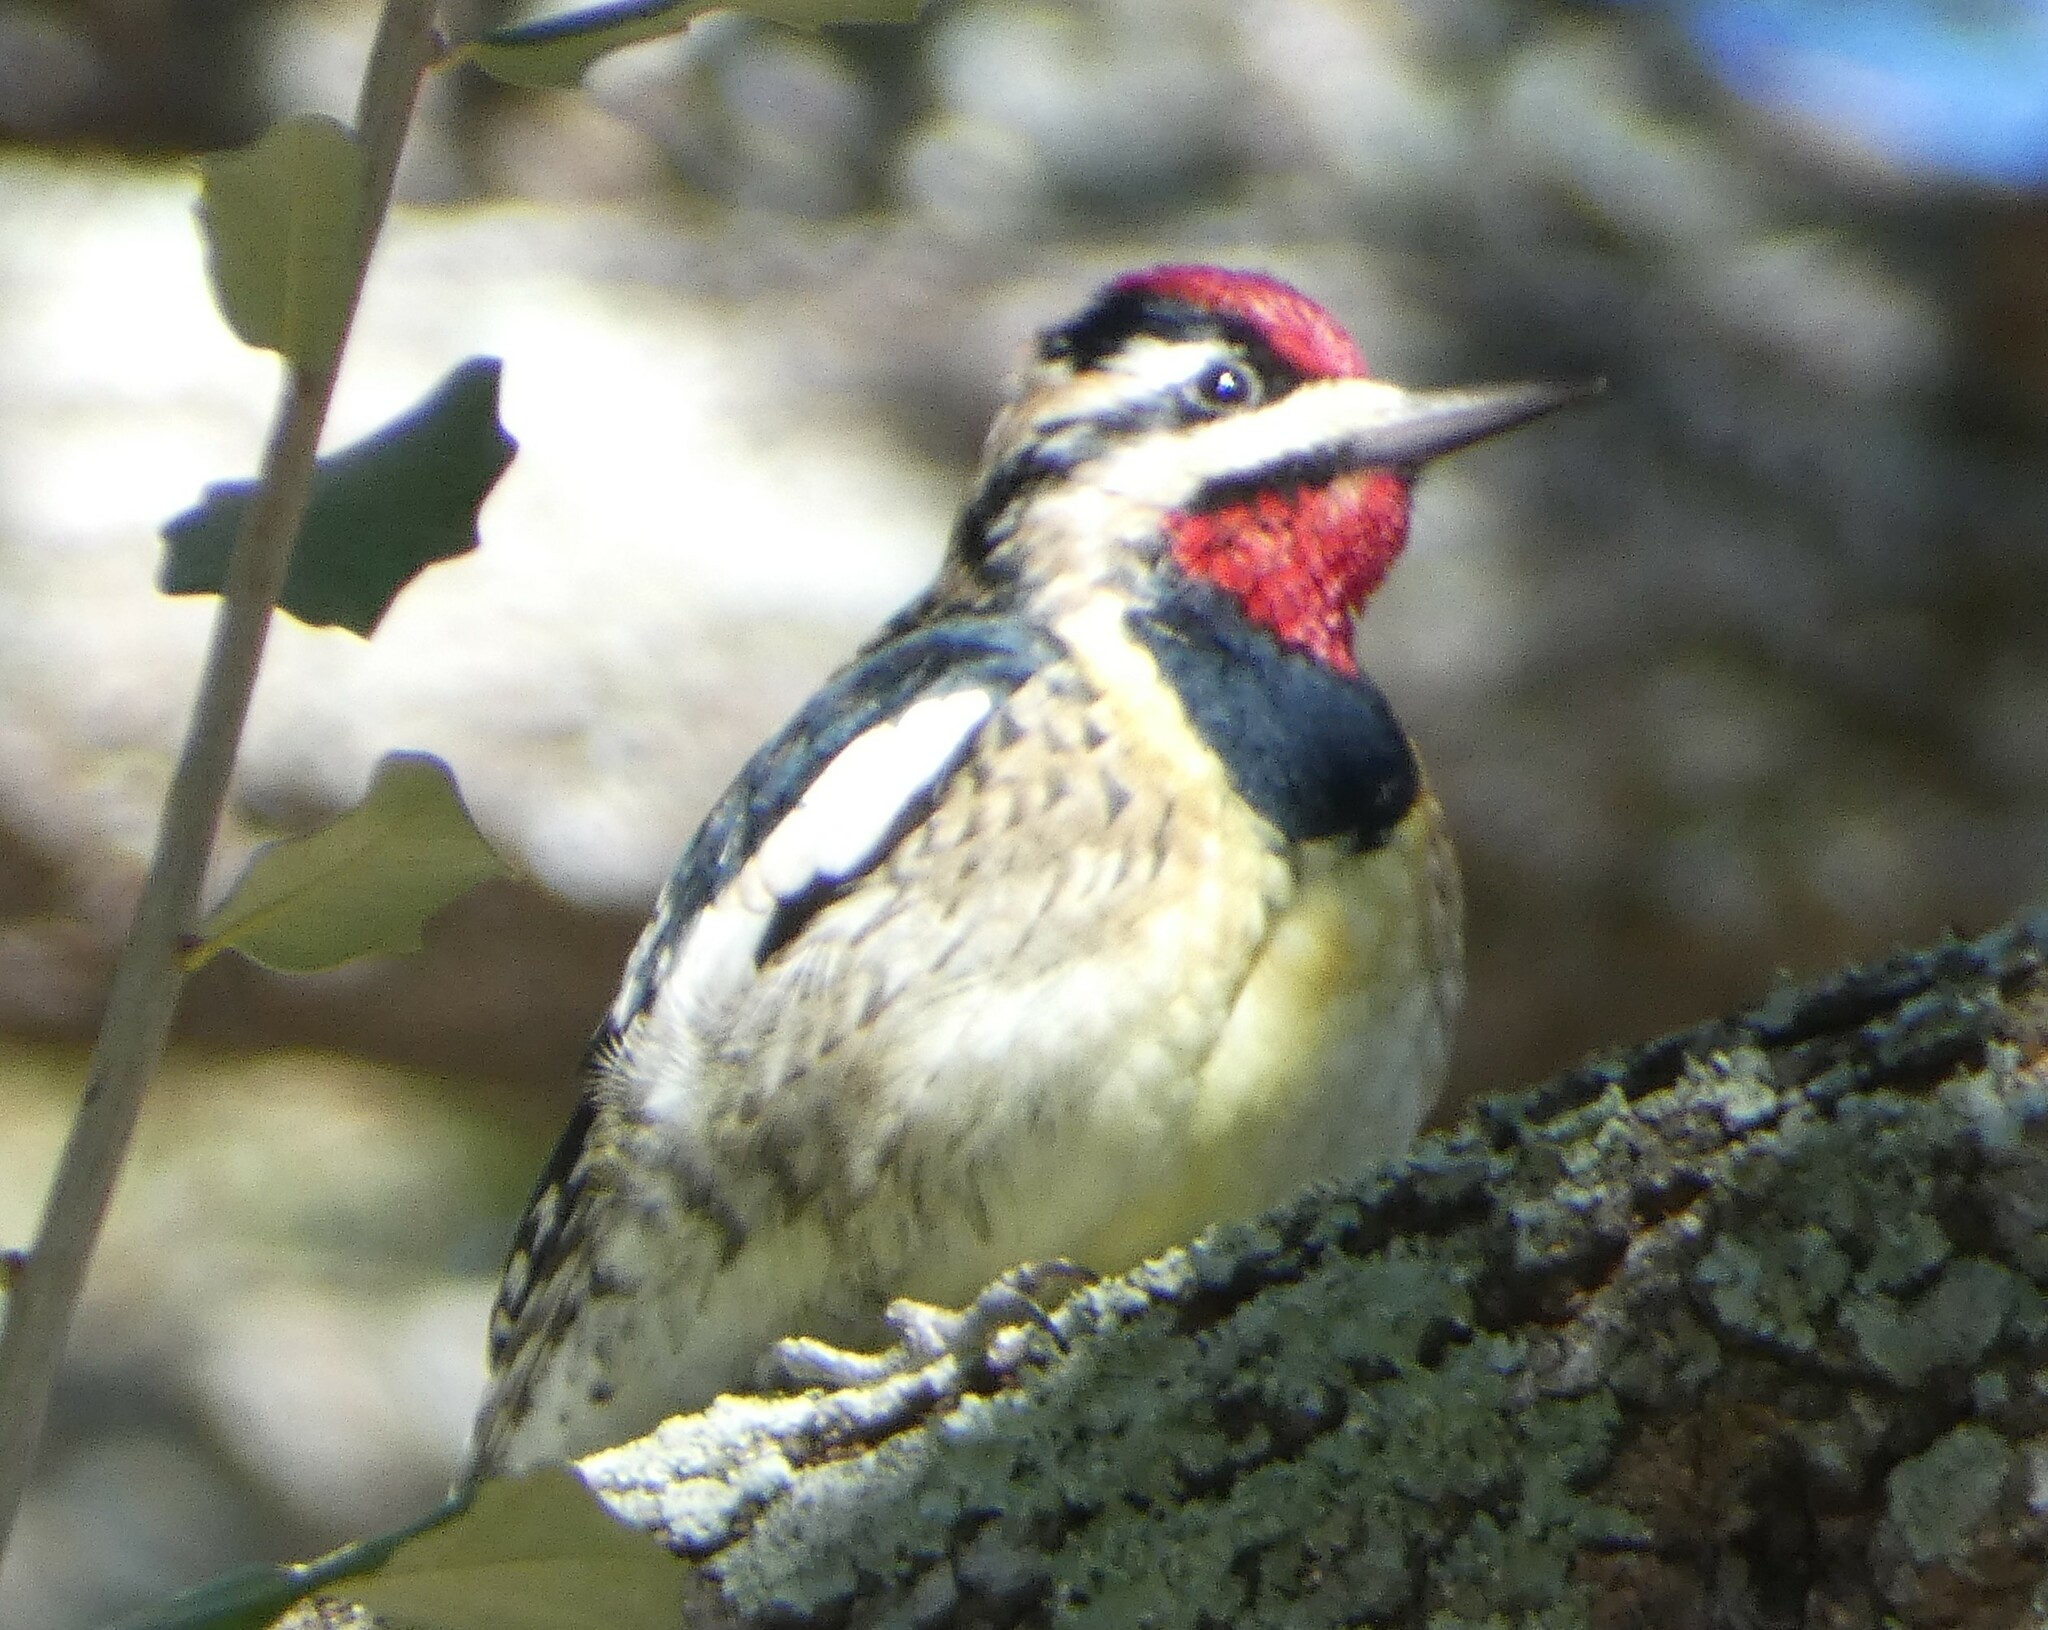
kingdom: Animalia
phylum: Chordata
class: Aves
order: Piciformes
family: Picidae
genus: Sphyrapicus
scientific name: Sphyrapicus varius
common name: Yellow-bellied sapsucker
